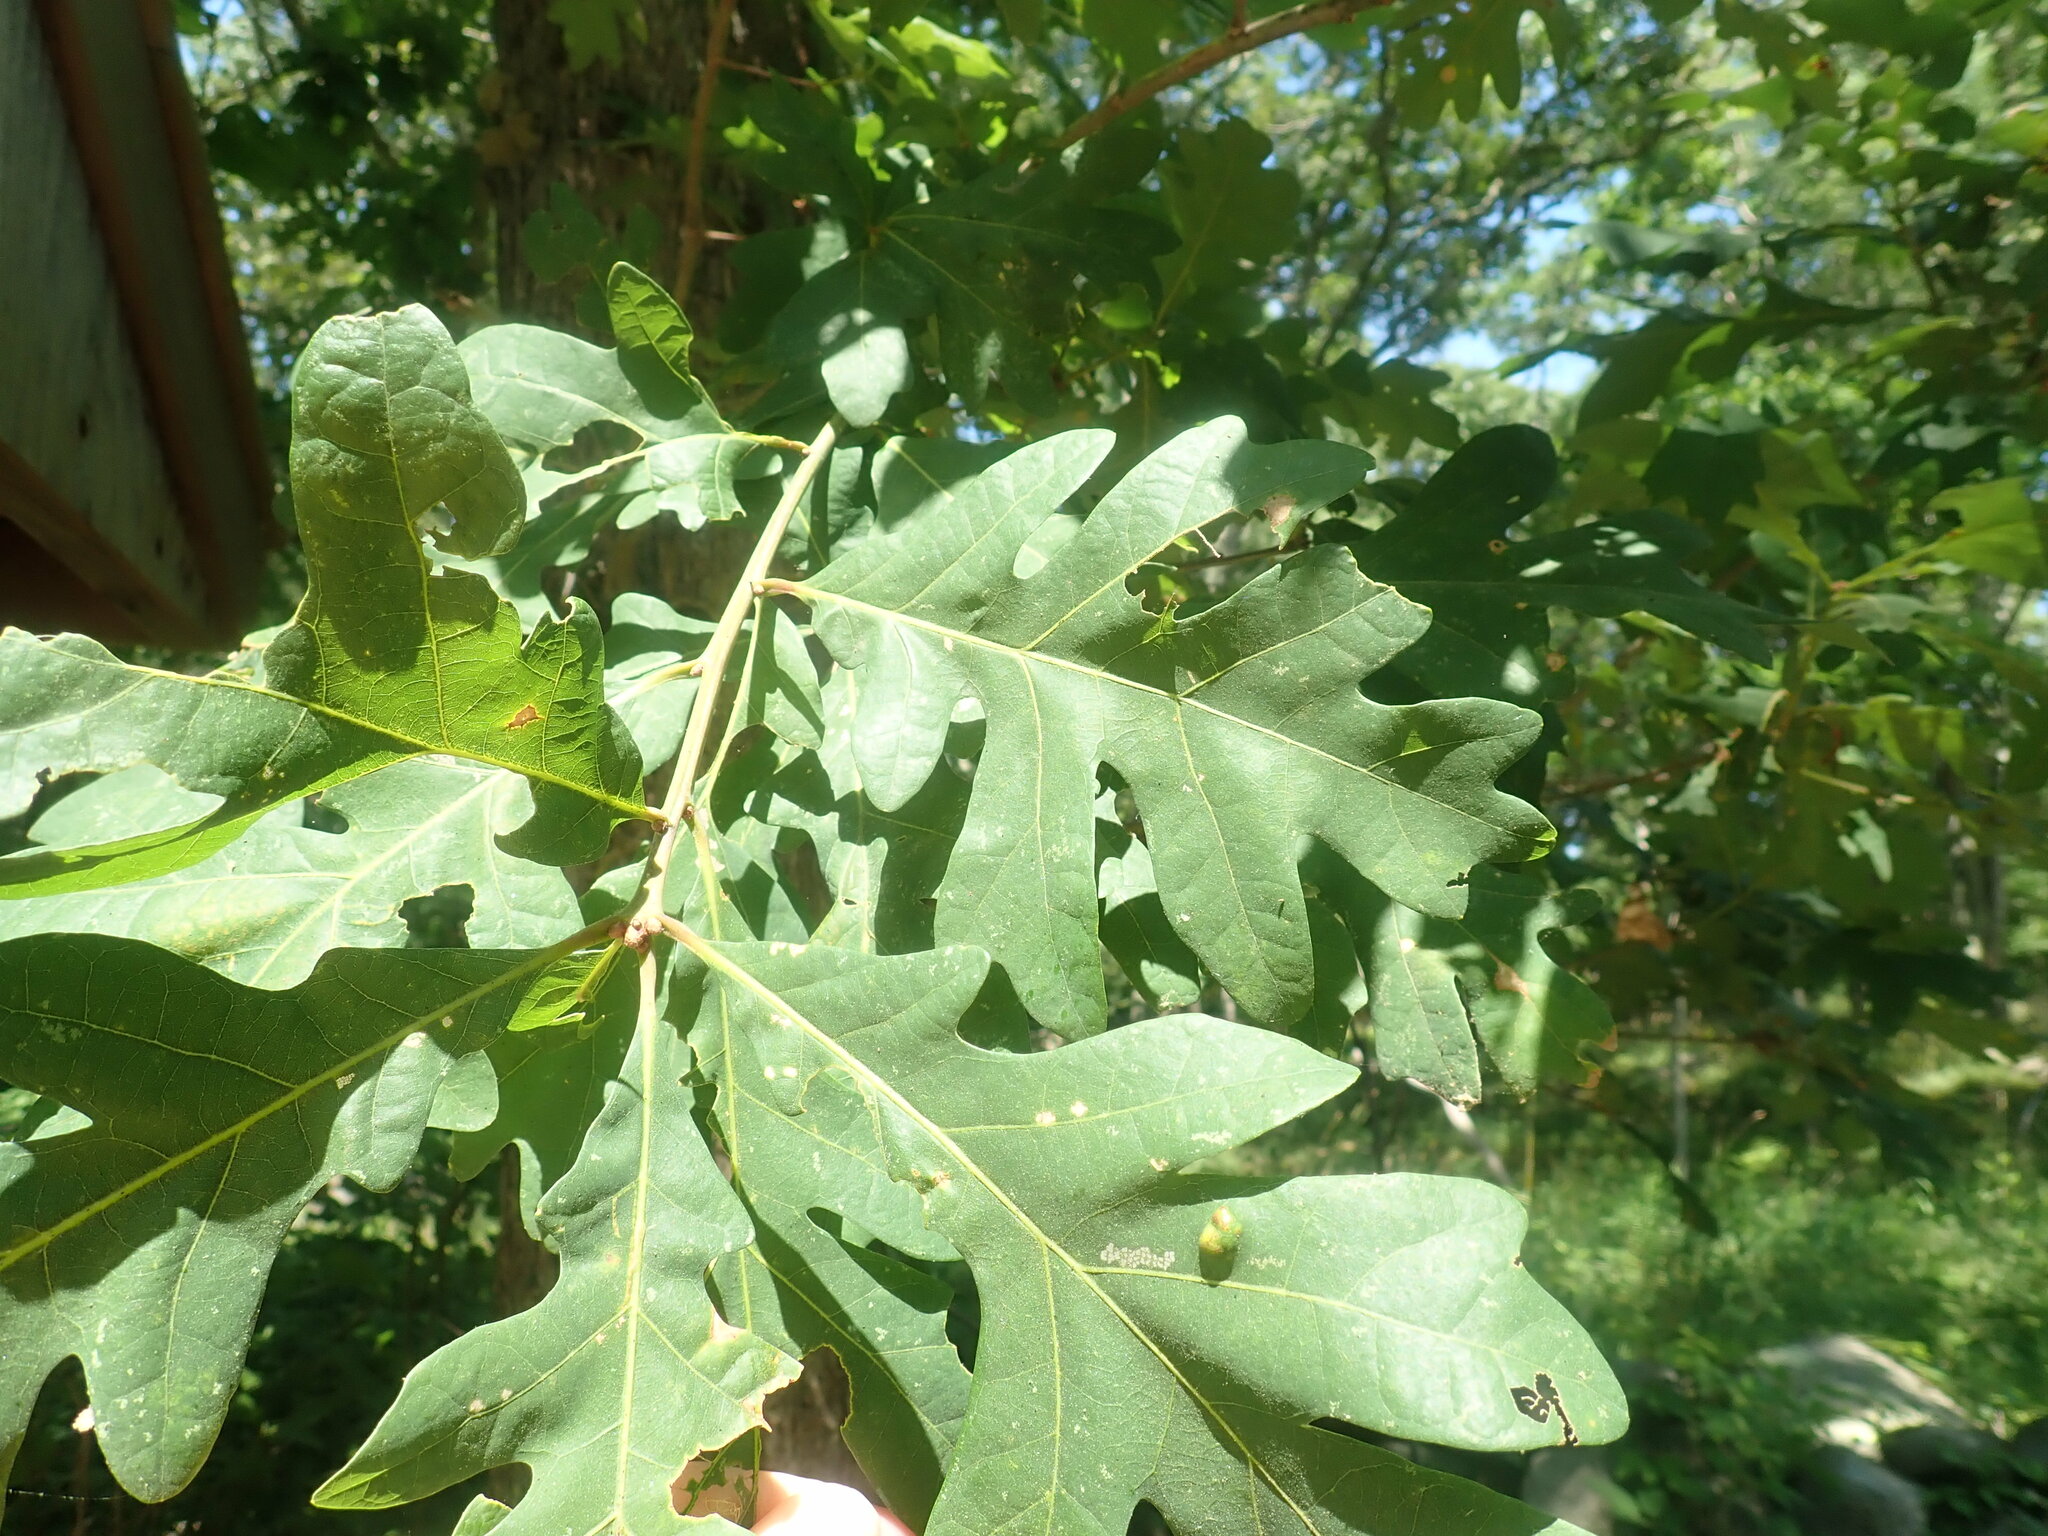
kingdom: Plantae
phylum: Tracheophyta
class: Magnoliopsida
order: Fagales
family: Fagaceae
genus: Quercus
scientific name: Quercus alba
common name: White oak
